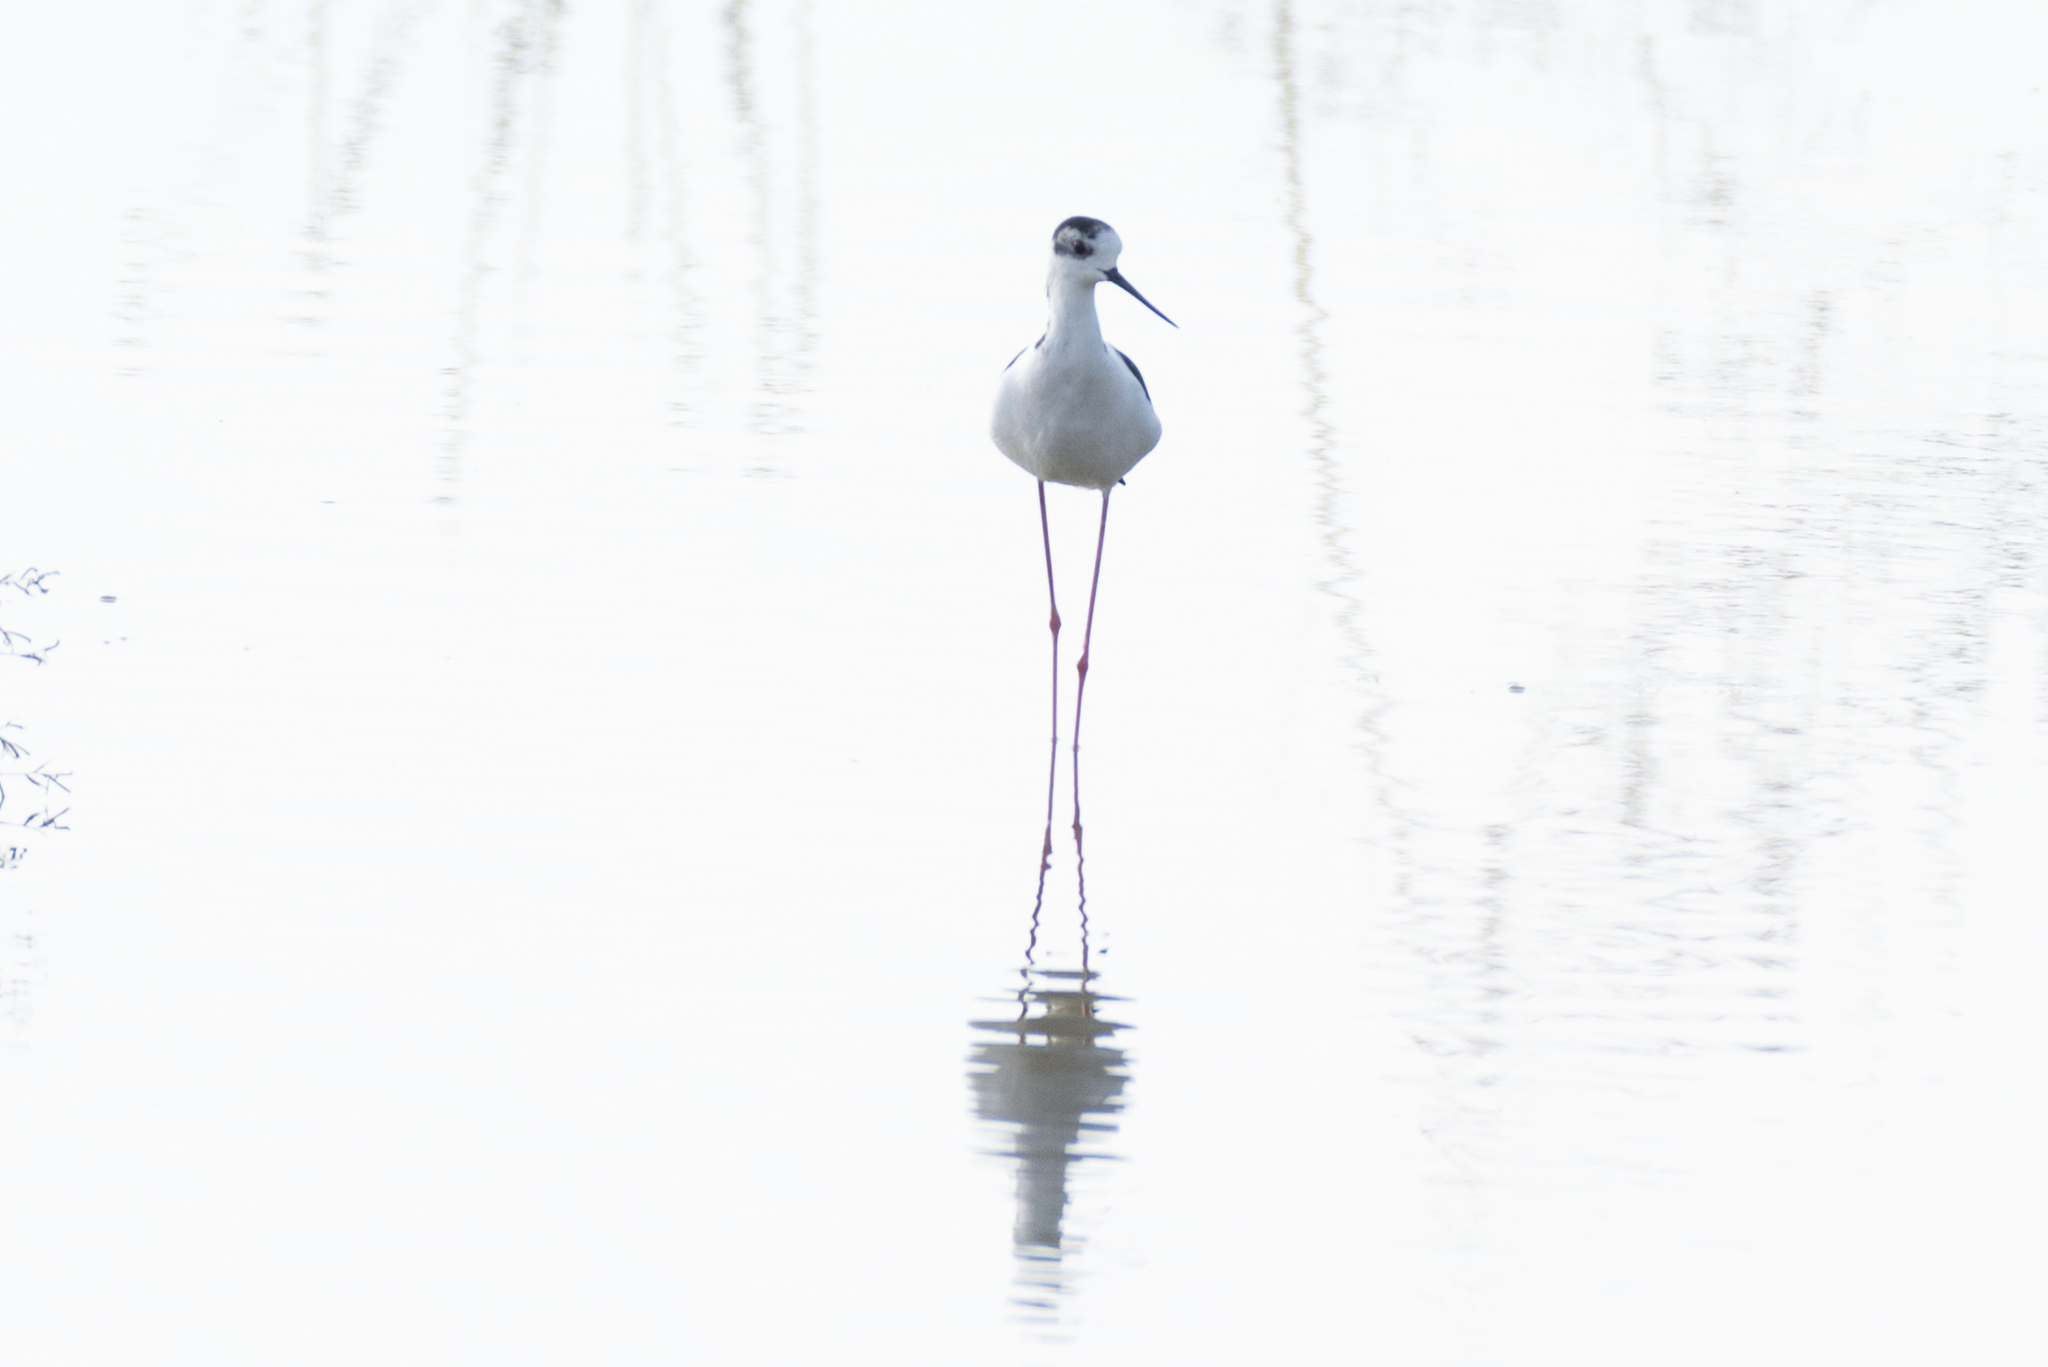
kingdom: Animalia
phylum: Chordata
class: Aves
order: Charadriiformes
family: Recurvirostridae
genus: Himantopus
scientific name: Himantopus himantopus
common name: Black-winged stilt
